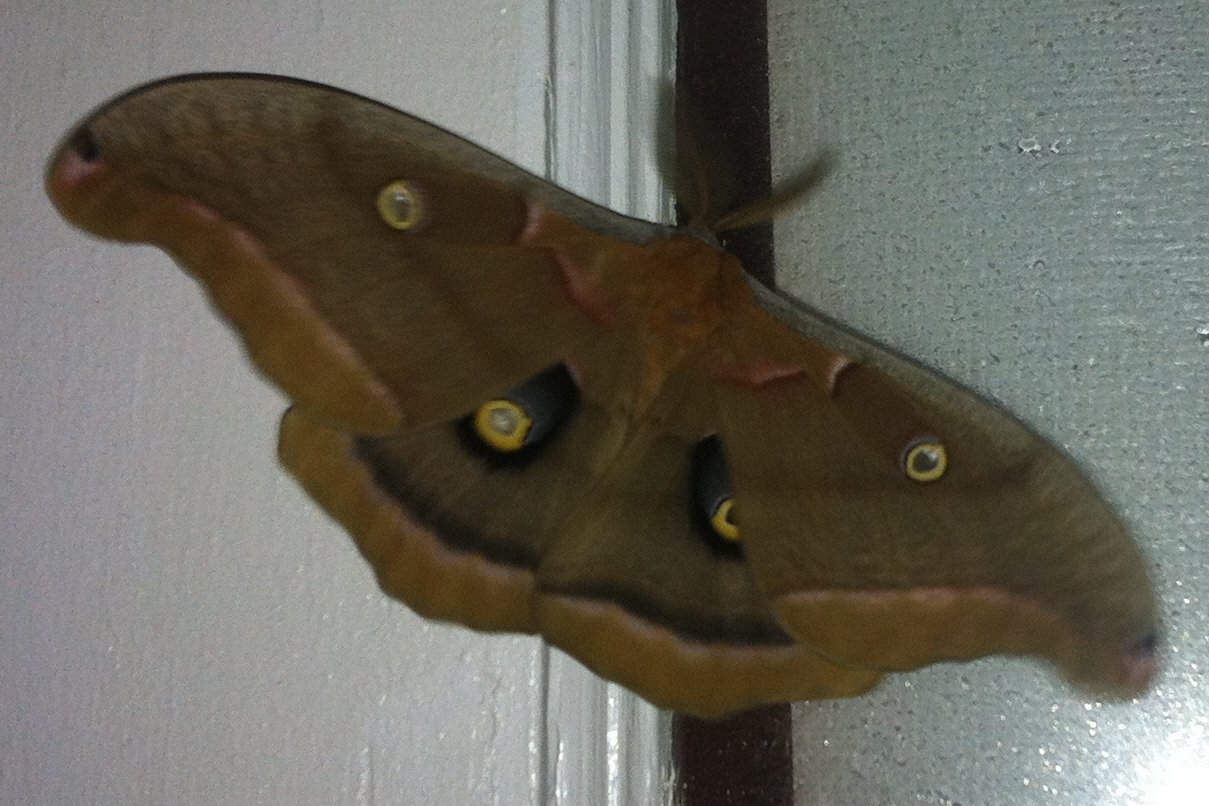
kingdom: Animalia
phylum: Arthropoda
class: Insecta
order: Lepidoptera
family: Saturniidae
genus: Antheraea
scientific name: Antheraea polyphemus
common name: Polyphemus moth
